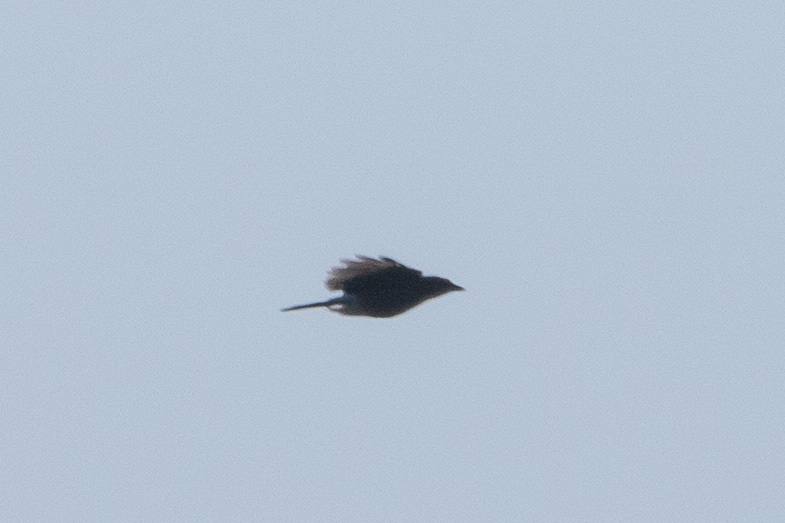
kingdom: Animalia
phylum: Chordata
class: Aves
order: Passeriformes
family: Corvidae
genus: Garrulus
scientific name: Garrulus glandarius
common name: Eurasian jay
